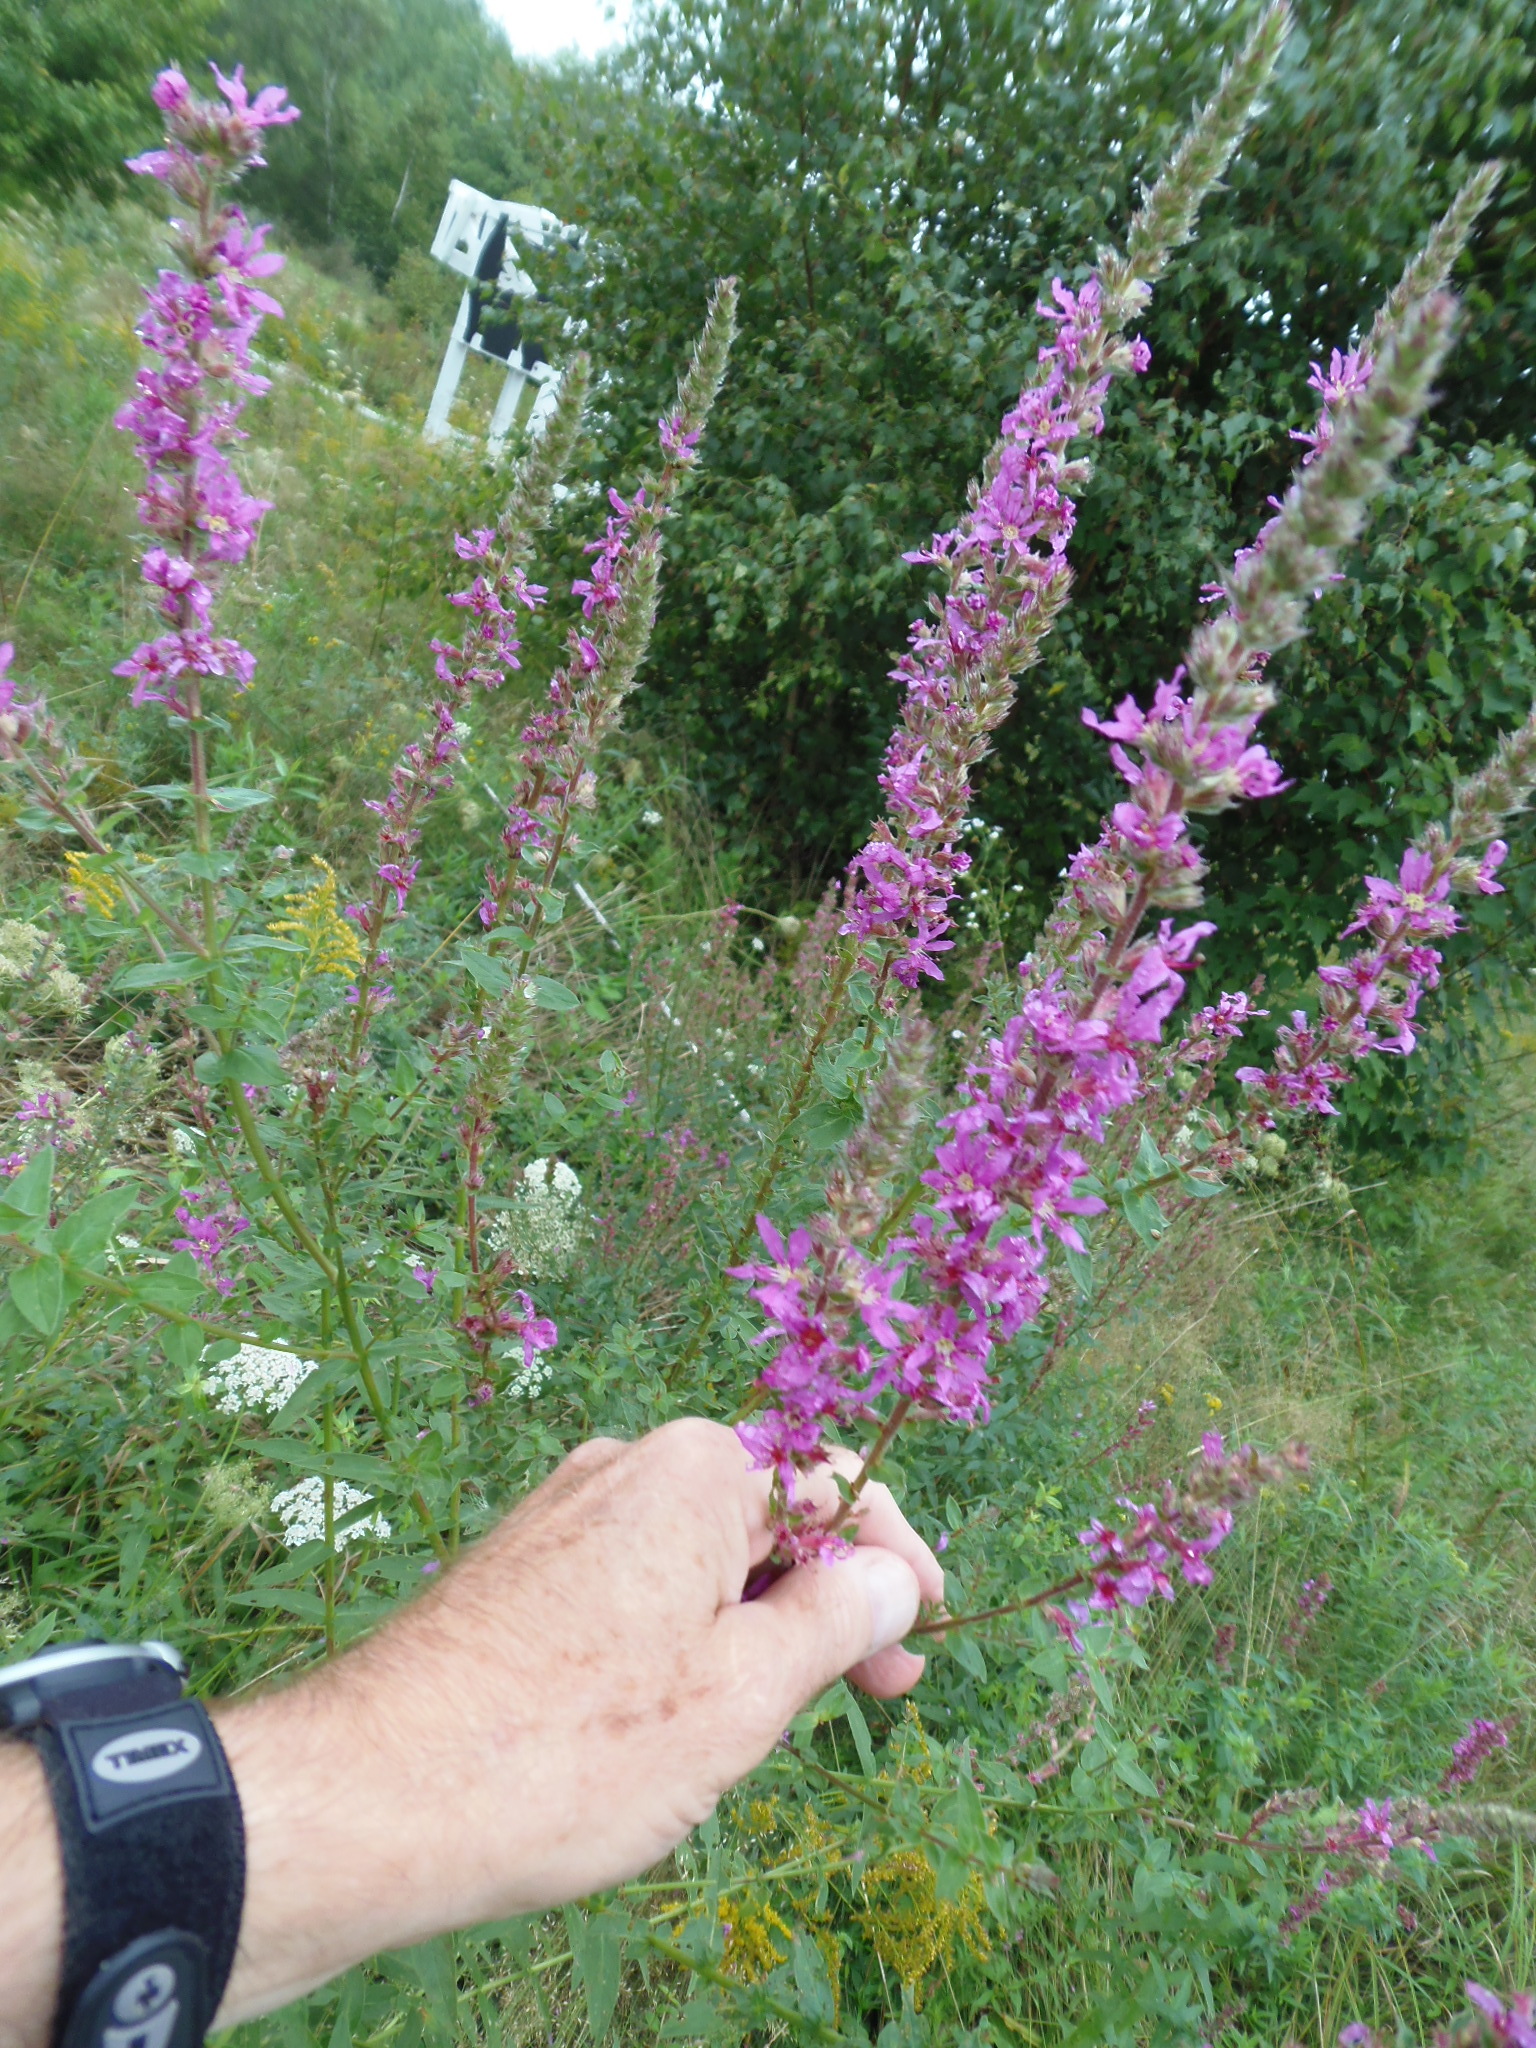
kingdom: Plantae
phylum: Tracheophyta
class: Magnoliopsida
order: Myrtales
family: Lythraceae
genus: Lythrum
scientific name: Lythrum salicaria
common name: Purple loosestrife
